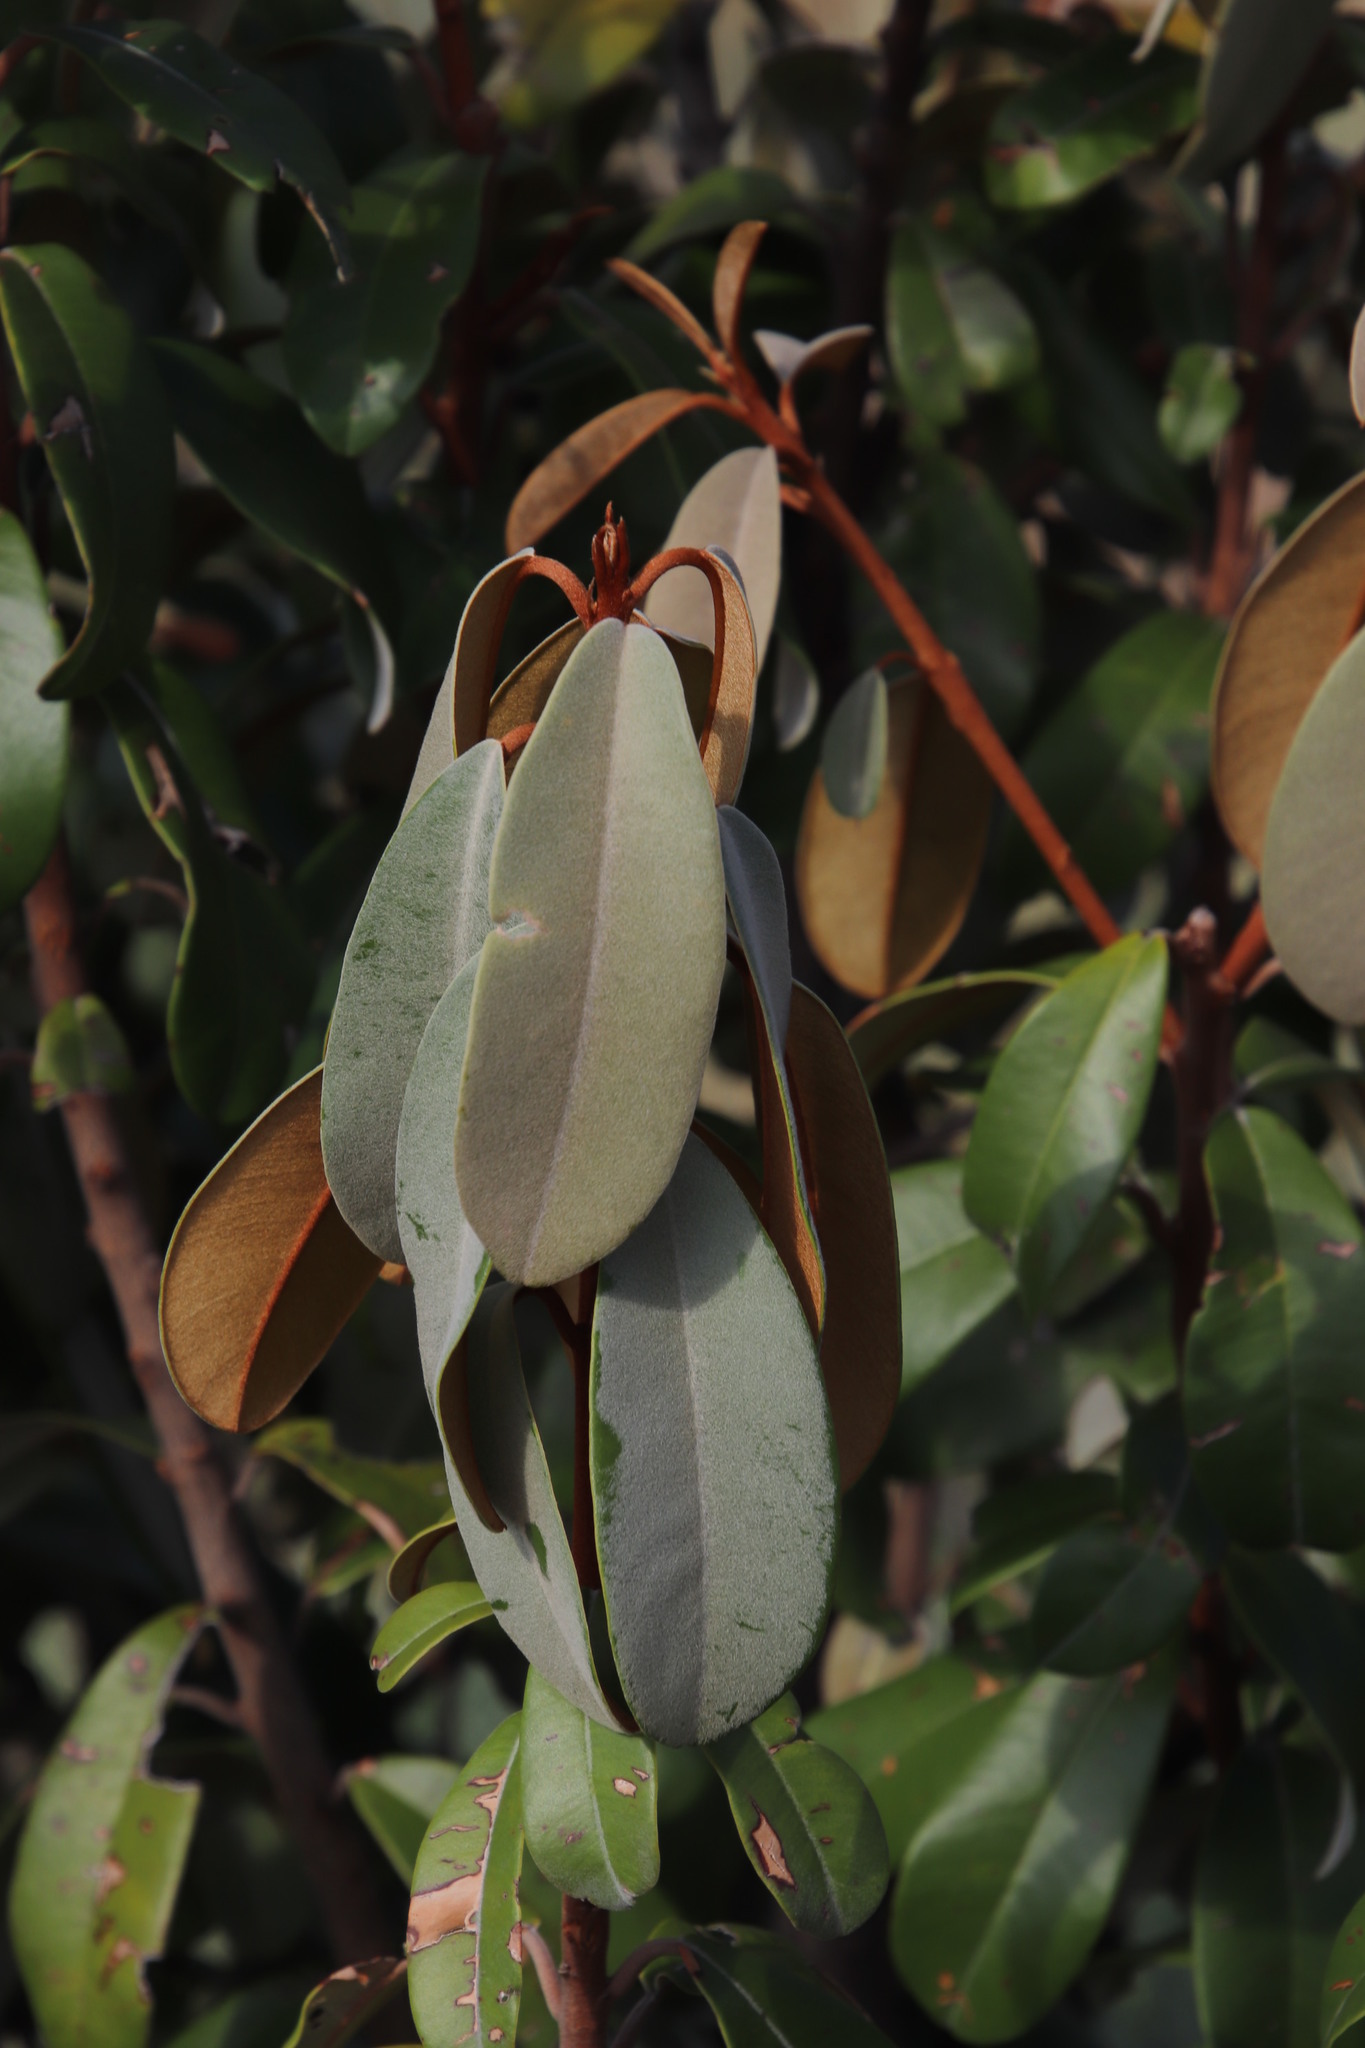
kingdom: Plantae
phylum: Tracheophyta
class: Magnoliopsida
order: Ericales
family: Sapotaceae
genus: Englerophytum
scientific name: Englerophytum magalismontanum
